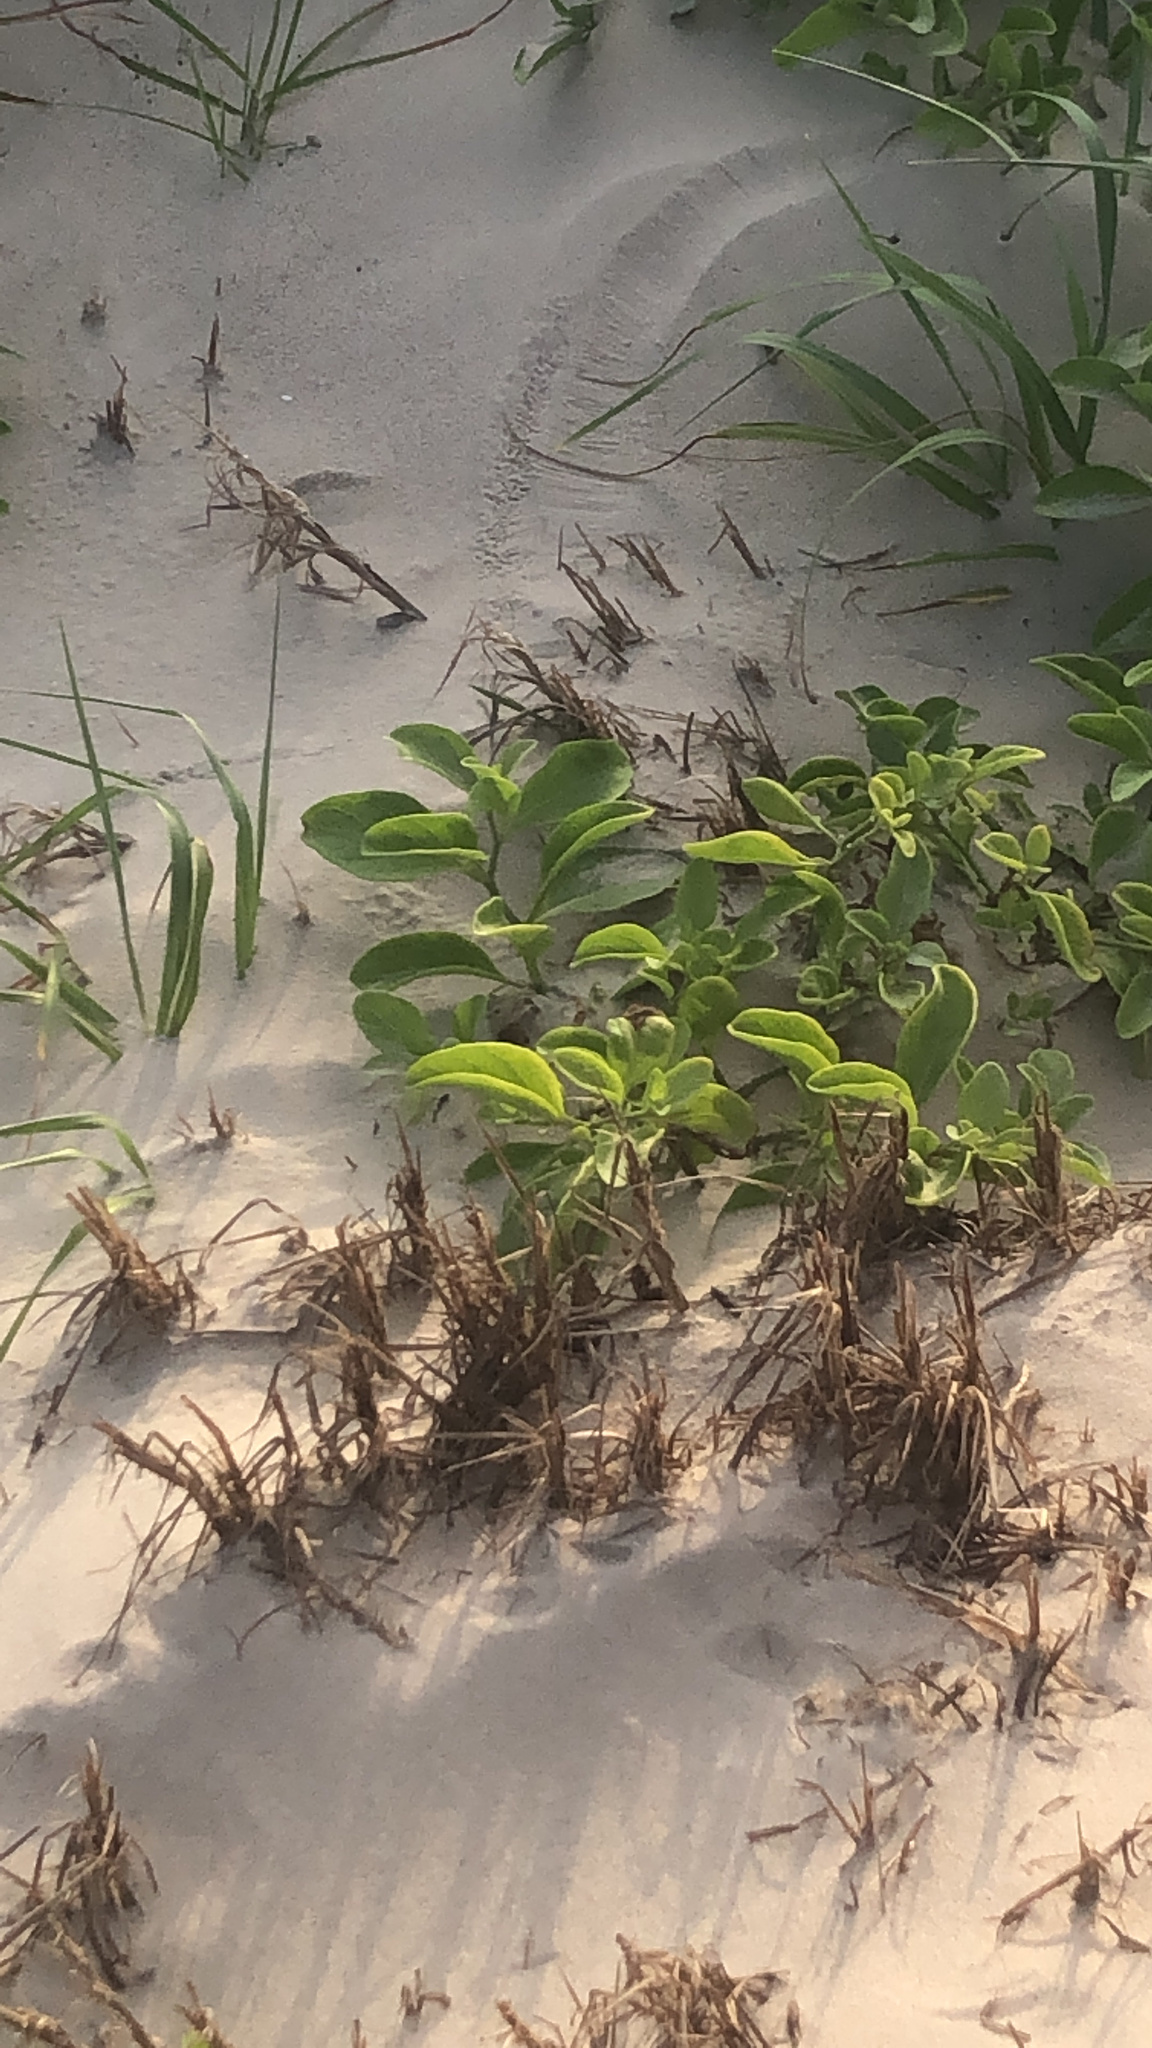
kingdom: Plantae
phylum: Tracheophyta
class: Magnoliopsida
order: Solanales
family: Convolvulaceae
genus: Ipomoea
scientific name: Ipomoea pes-caprae
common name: Beach morning glory
